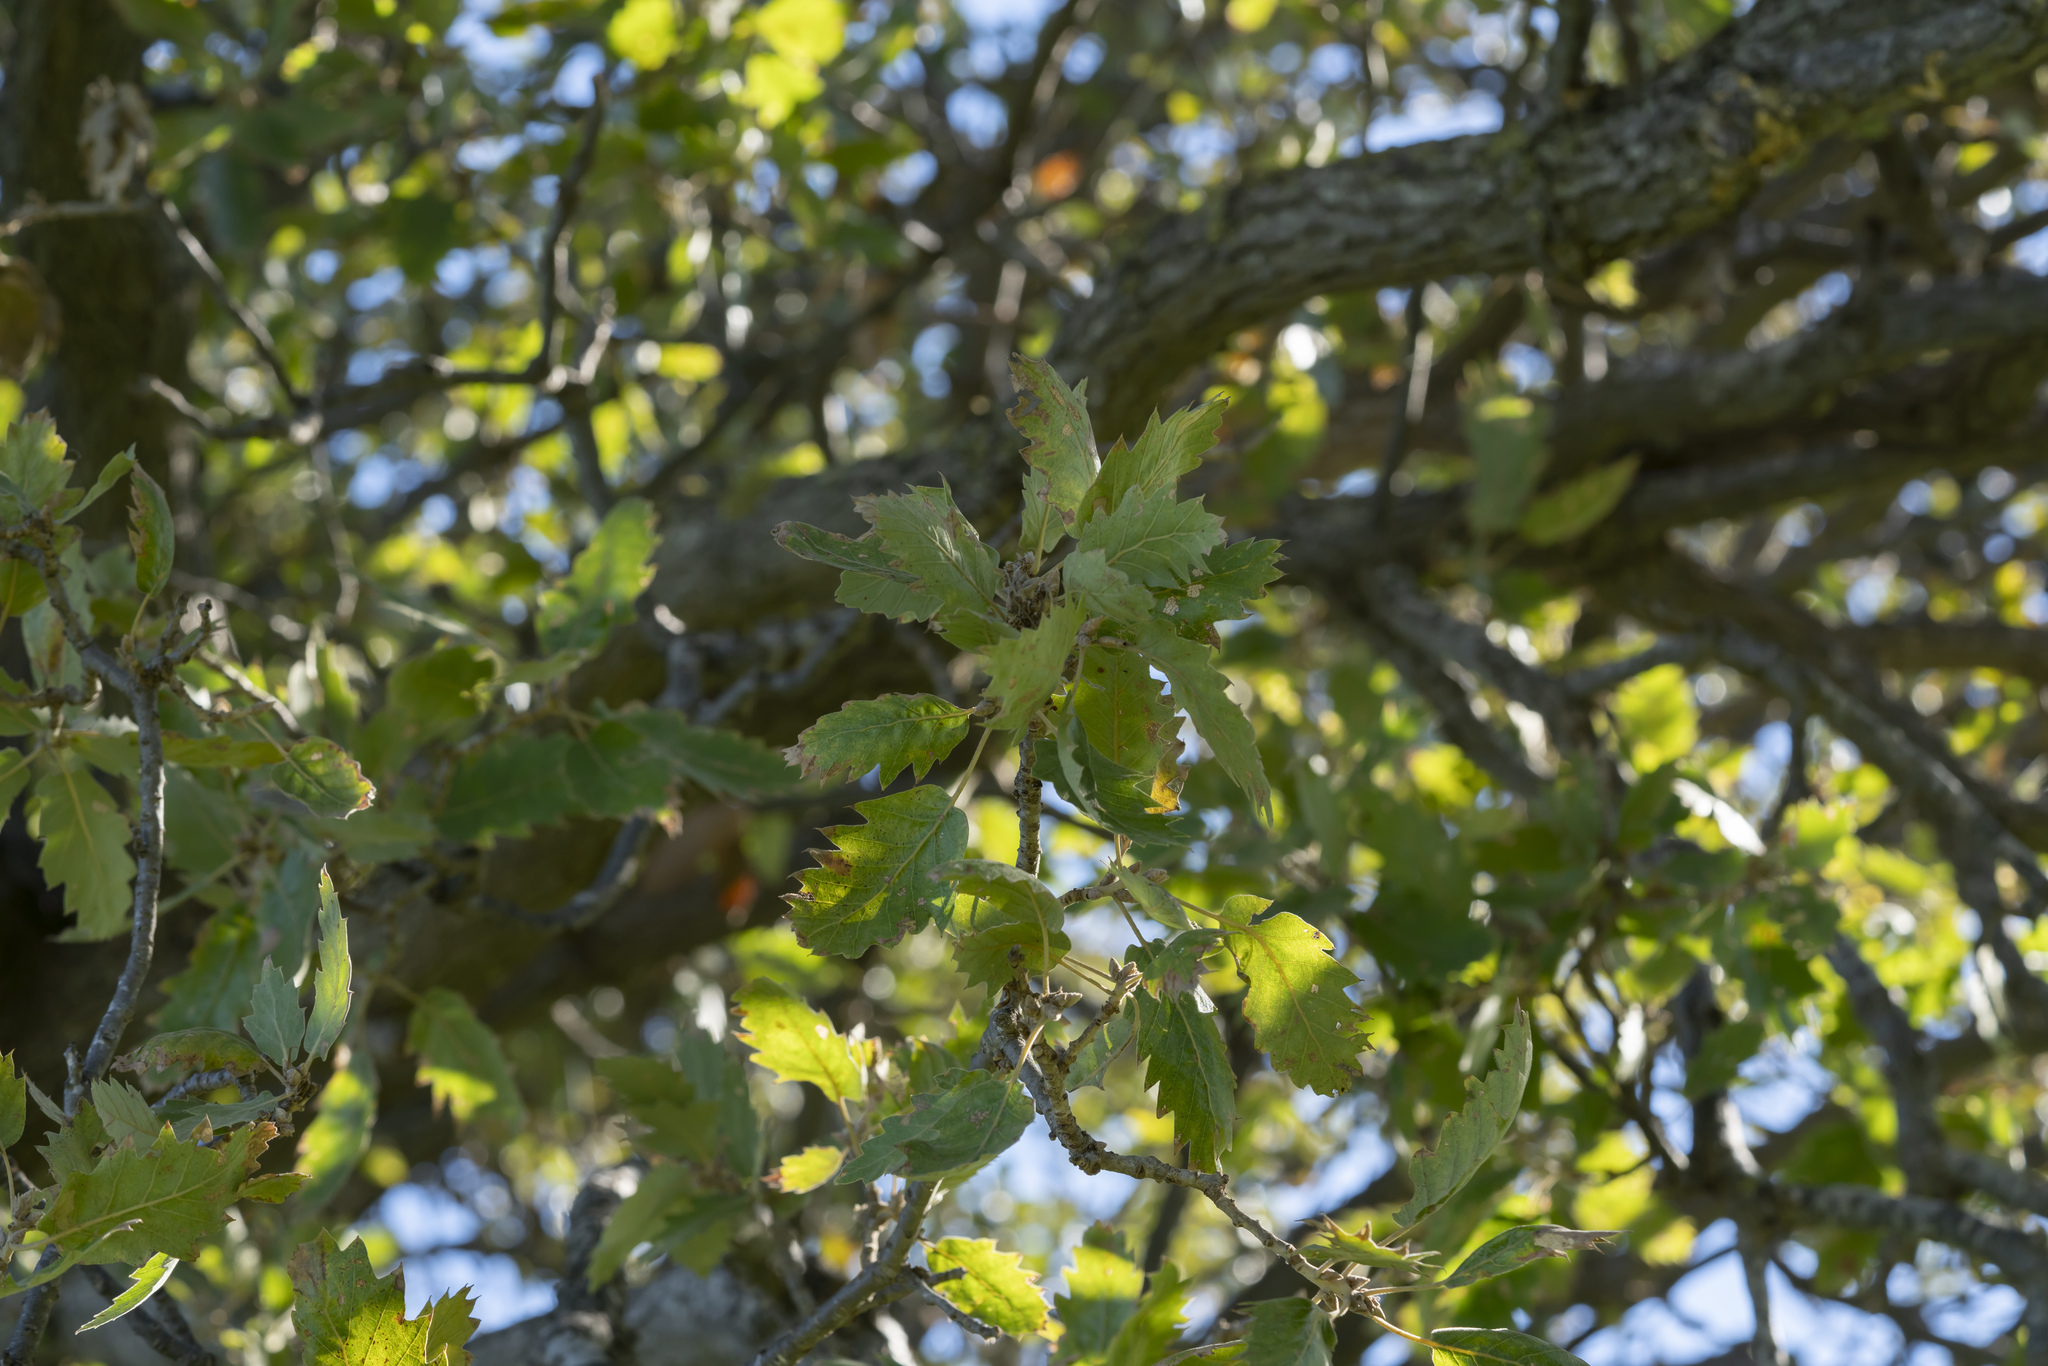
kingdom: Plantae
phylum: Tracheophyta
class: Magnoliopsida
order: Fagales
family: Fagaceae
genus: Quercus
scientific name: Quercus ithaburensis
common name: Tabor oak
